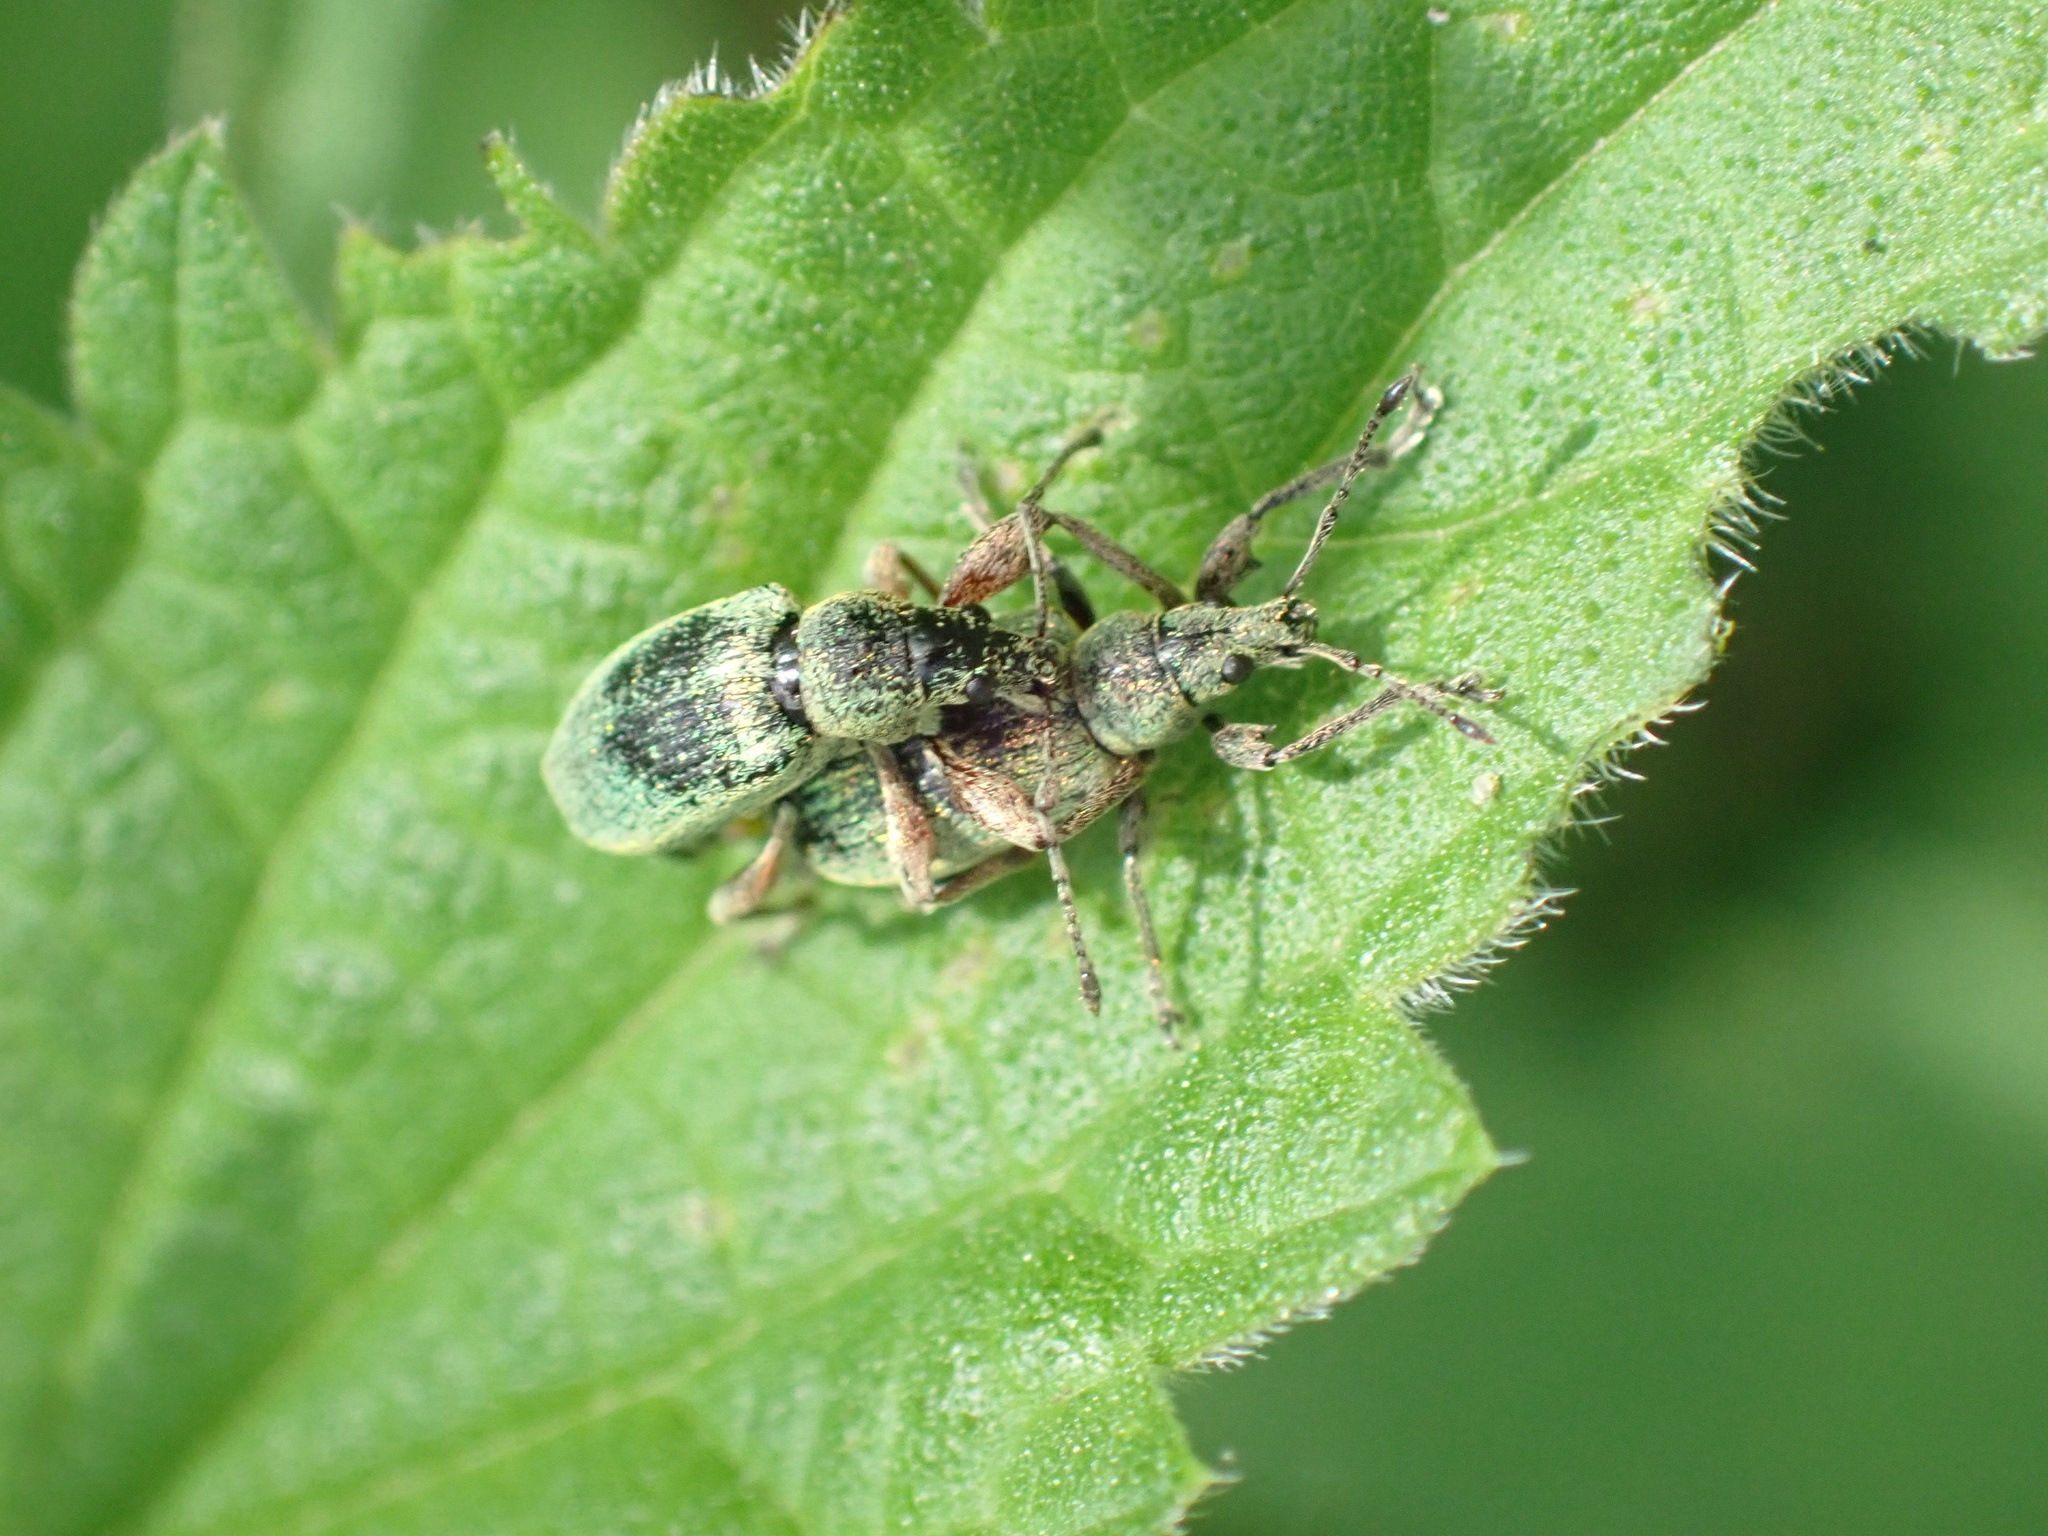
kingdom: Animalia
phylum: Arthropoda
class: Insecta
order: Coleoptera
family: Curculionidae
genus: Phyllobius
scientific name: Phyllobius pomaceus
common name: Green nettle weevil
